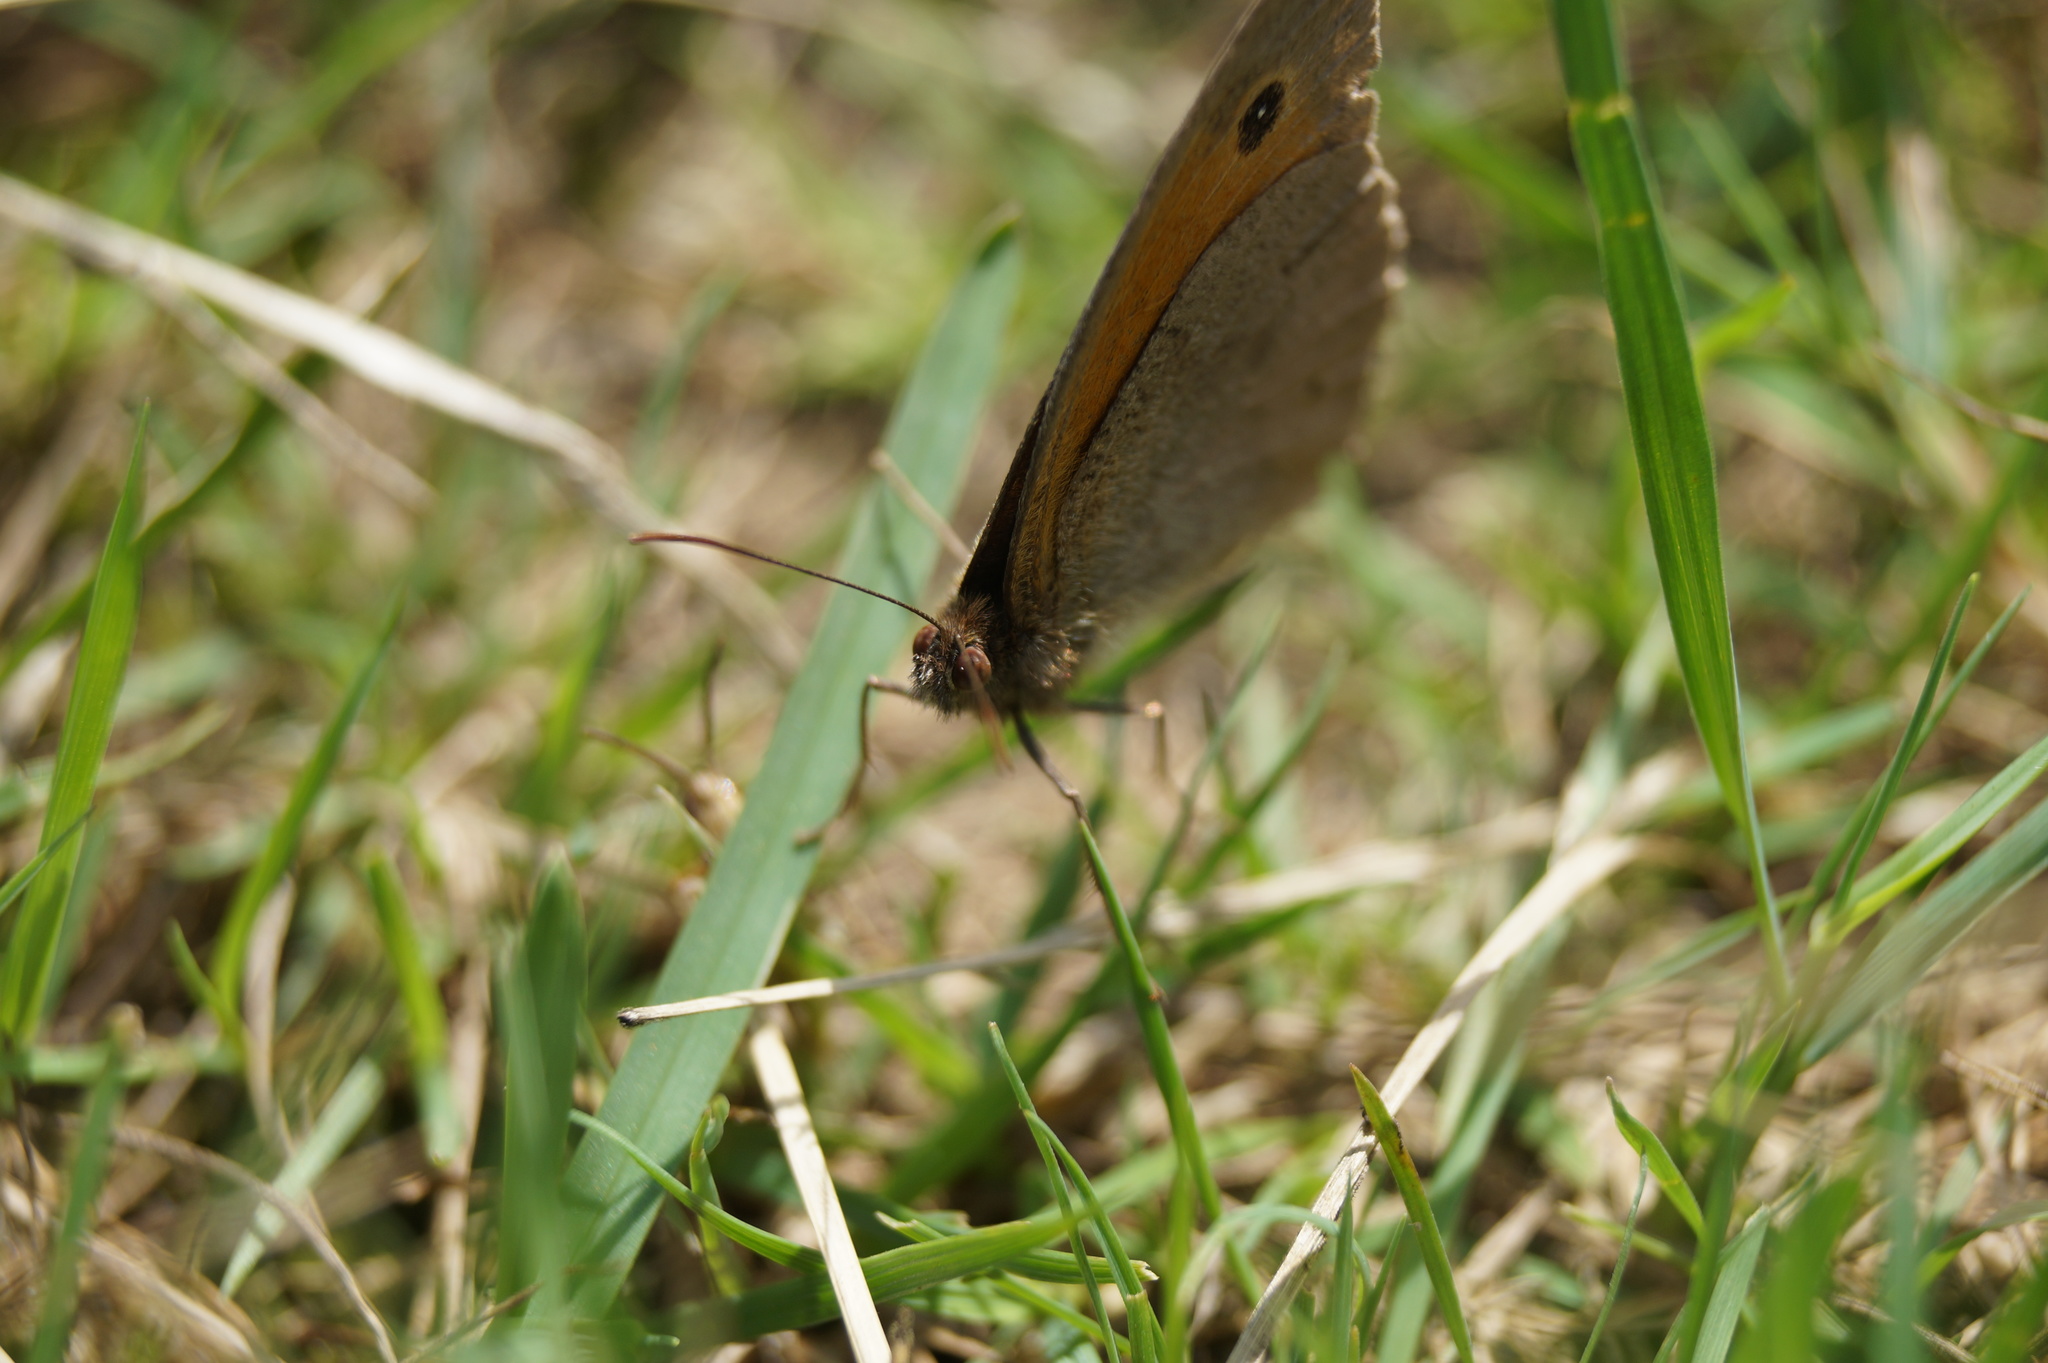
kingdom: Animalia
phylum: Arthropoda
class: Insecta
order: Lepidoptera
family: Nymphalidae
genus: Maniola
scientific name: Maniola jurtina
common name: Meadow brown
